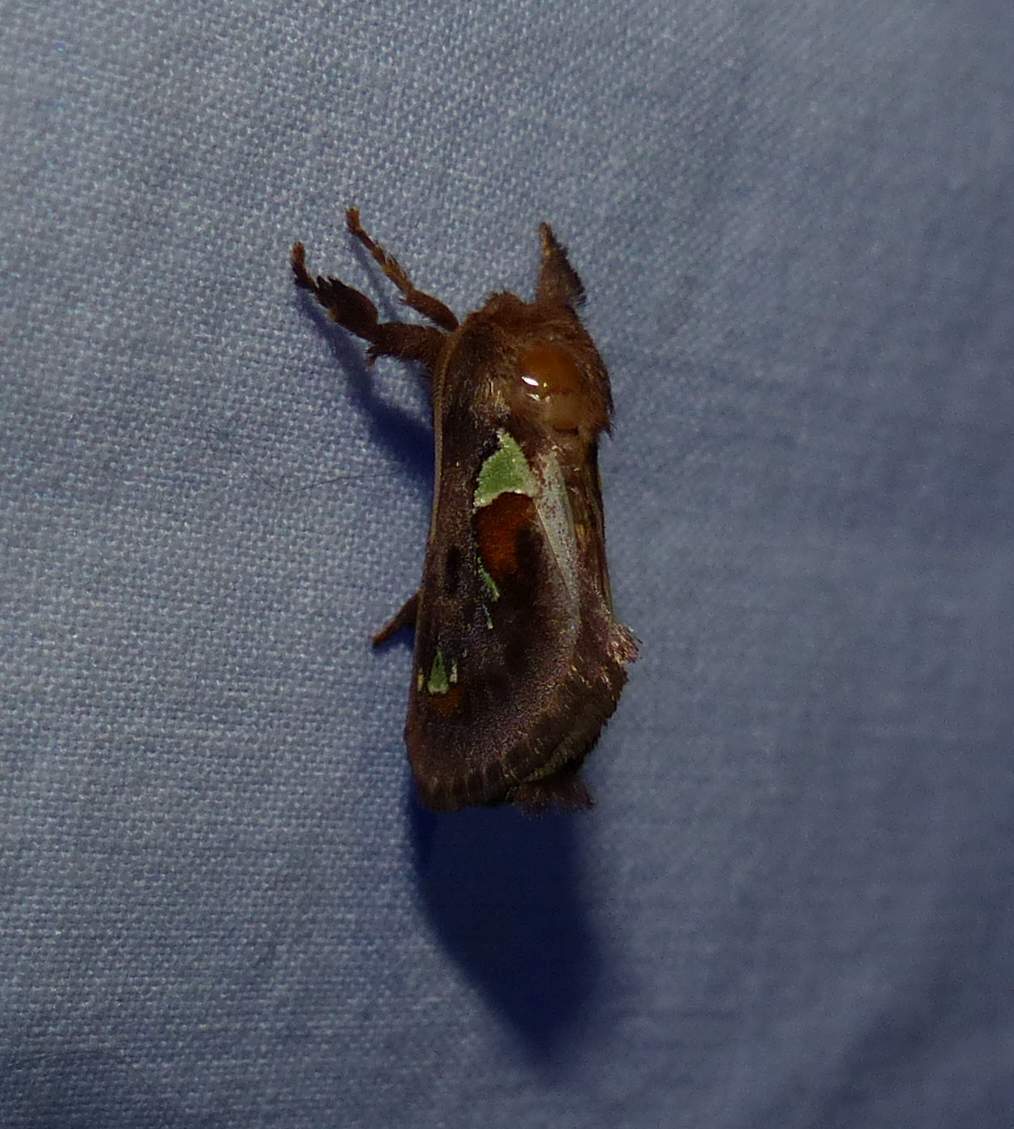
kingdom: Animalia
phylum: Arthropoda
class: Insecta
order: Lepidoptera
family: Limacodidae
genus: Euclea
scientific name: Euclea delphinii
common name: Spiny oak-slug moth
